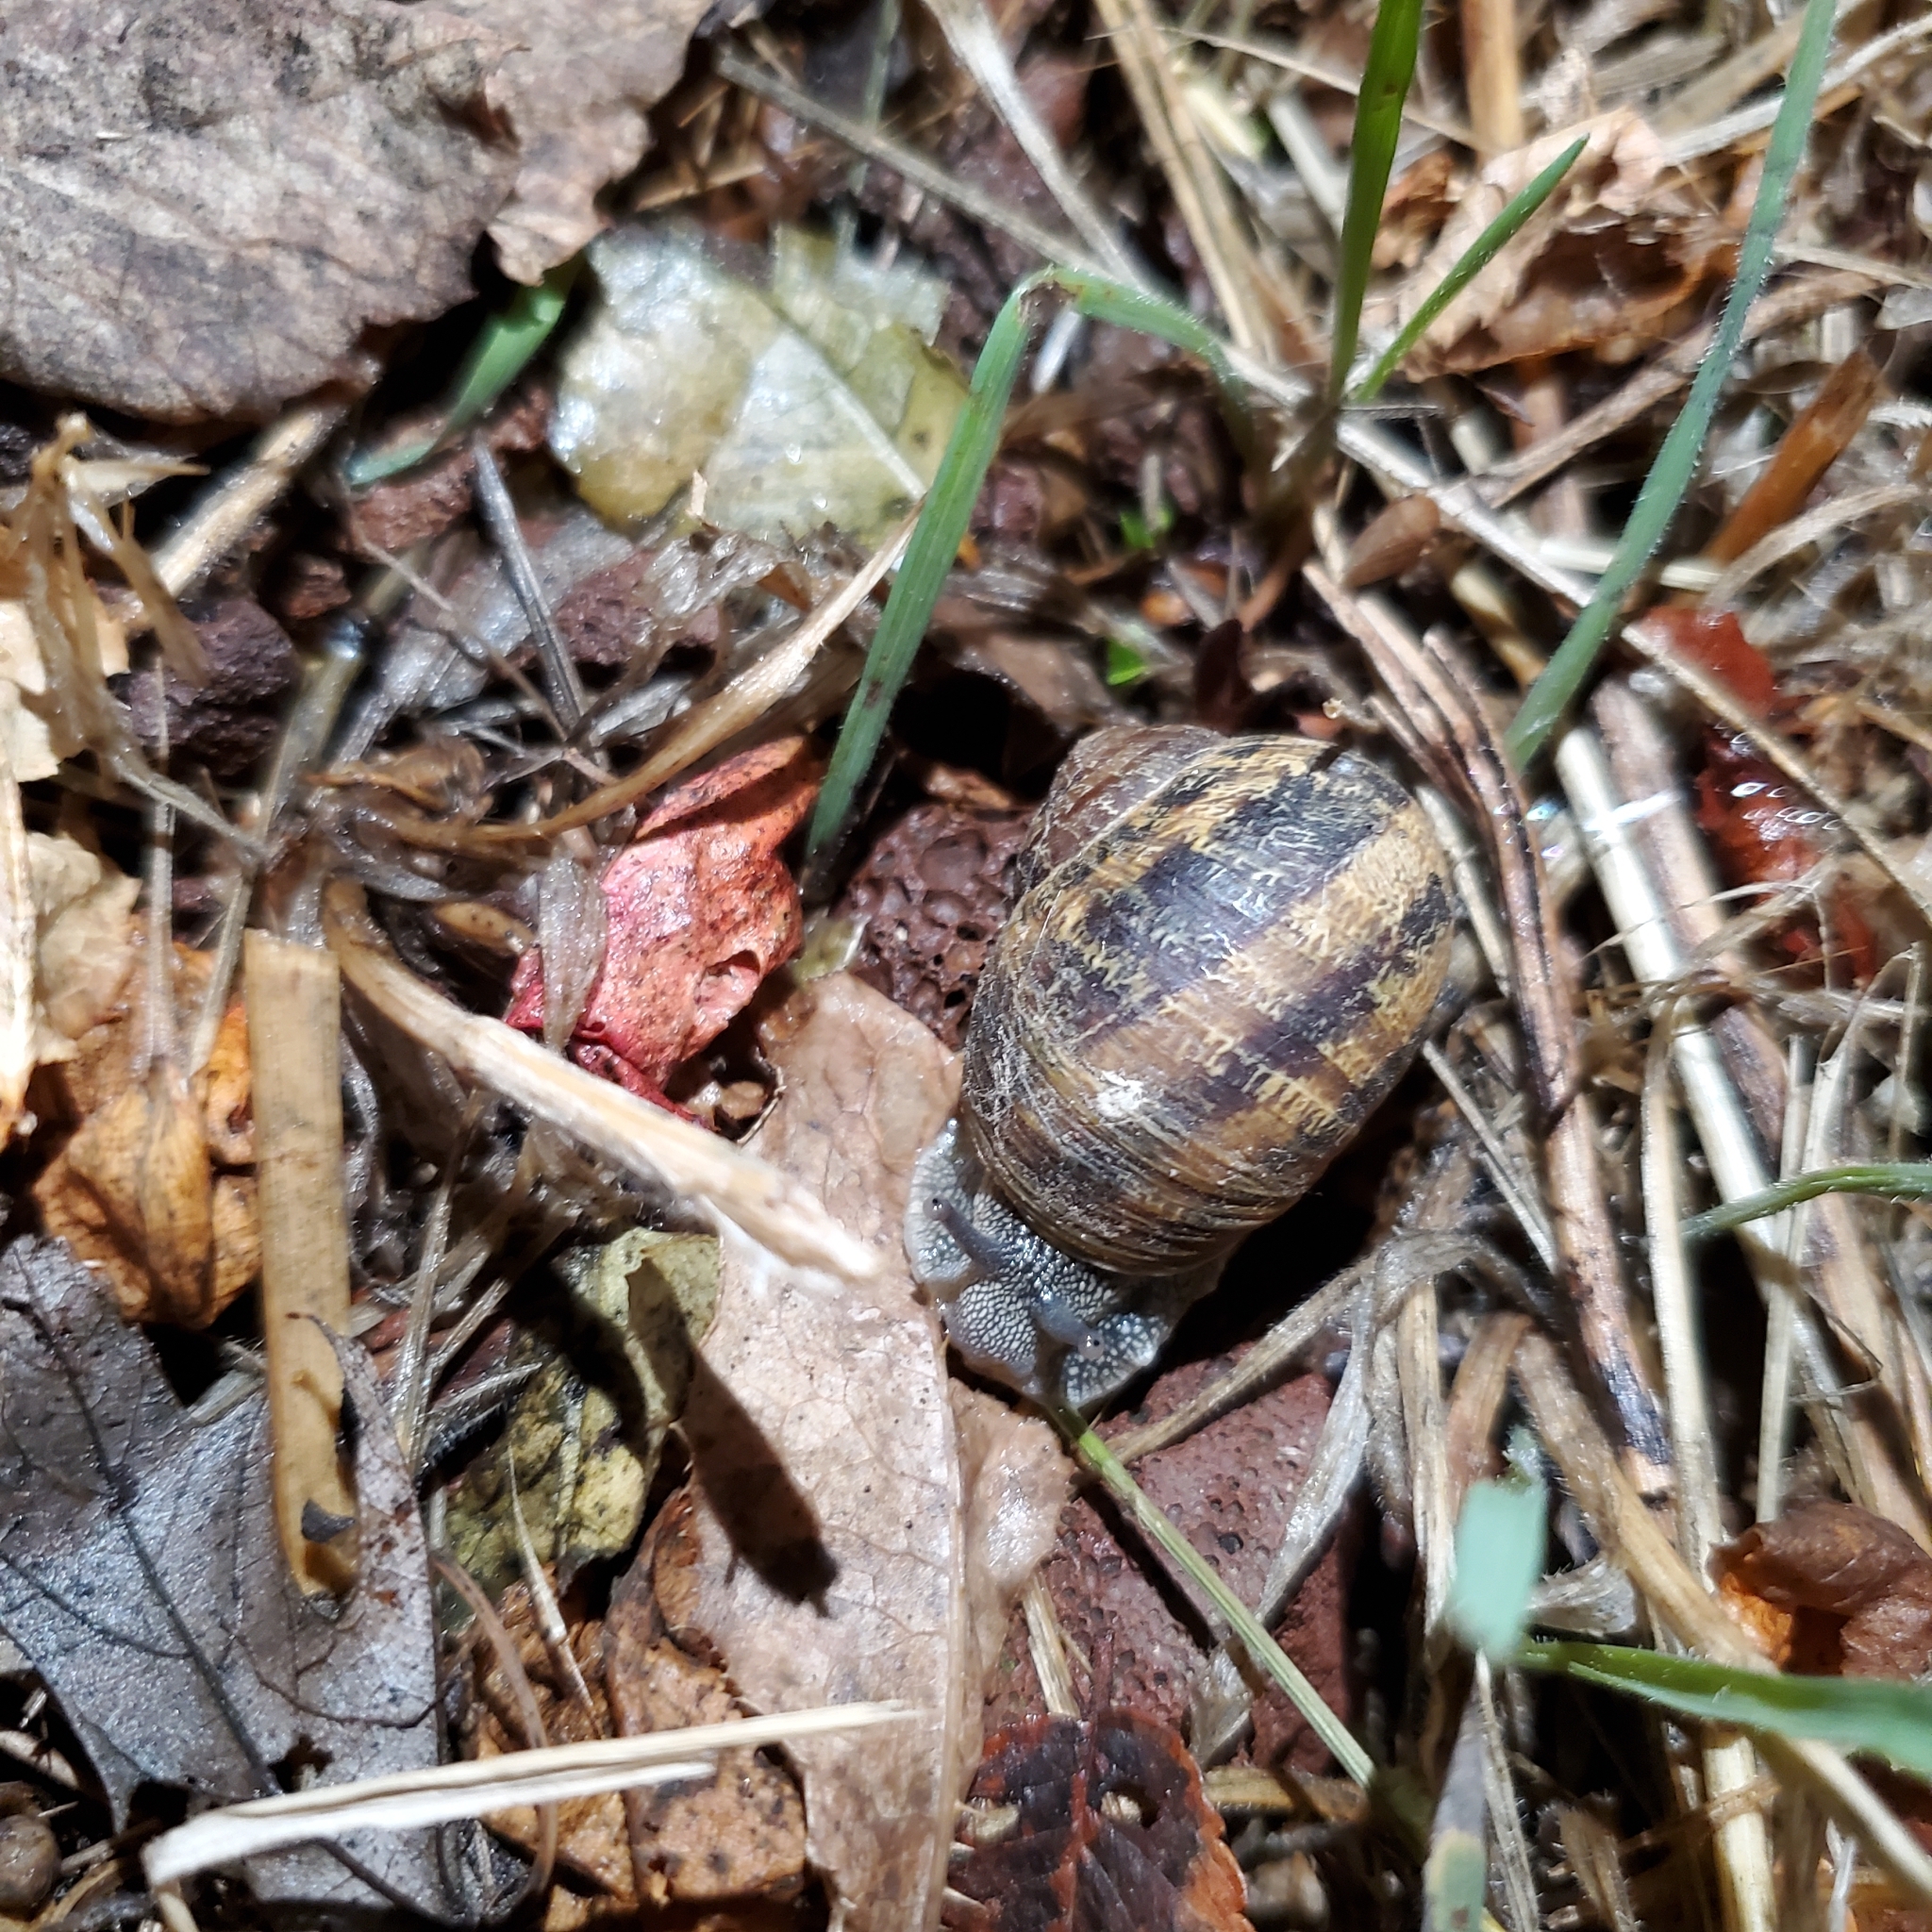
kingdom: Animalia
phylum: Mollusca
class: Gastropoda
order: Stylommatophora
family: Helicidae
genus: Cornu
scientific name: Cornu aspersum
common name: Brown garden snail
